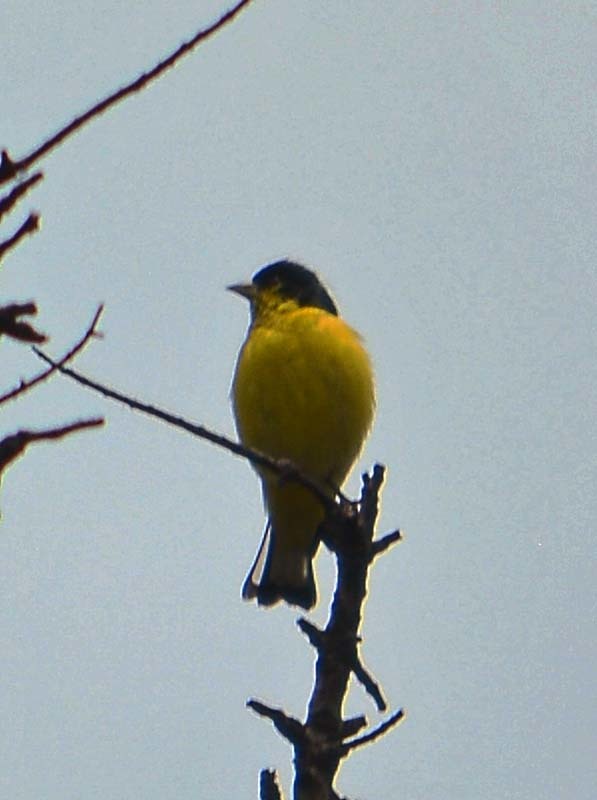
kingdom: Animalia
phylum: Chordata
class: Aves
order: Passeriformes
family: Fringillidae
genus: Spinus
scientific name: Spinus psaltria
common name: Lesser goldfinch
